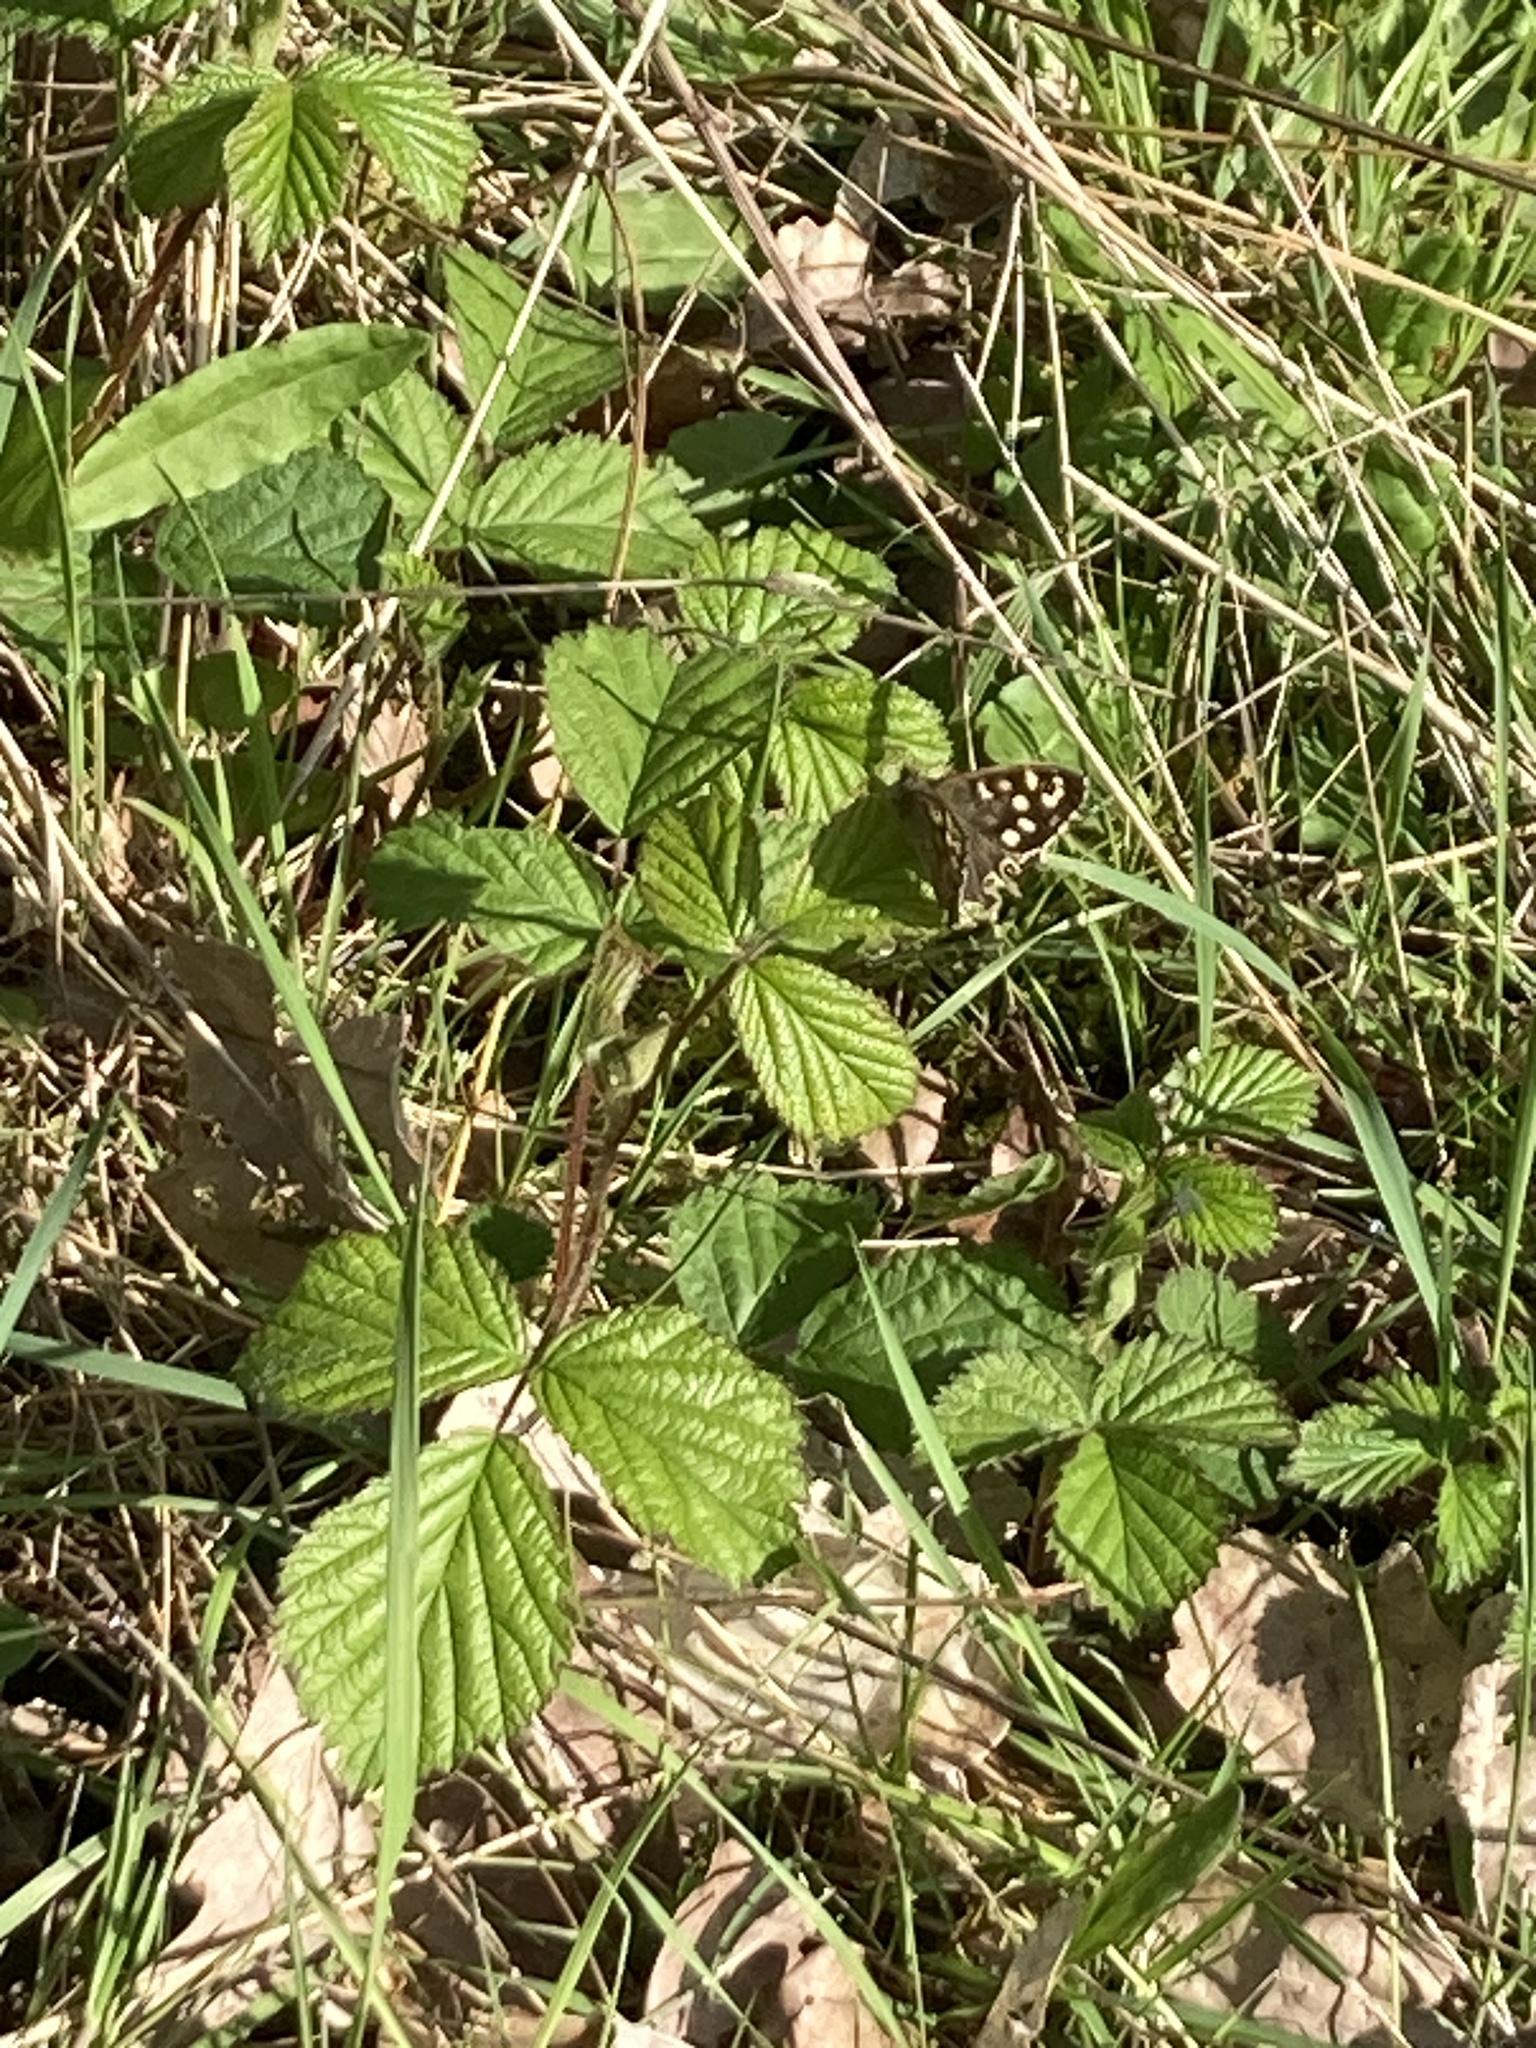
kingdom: Animalia
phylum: Arthropoda
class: Insecta
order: Lepidoptera
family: Nymphalidae
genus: Pararge
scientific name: Pararge aegeria
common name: Speckled wood
